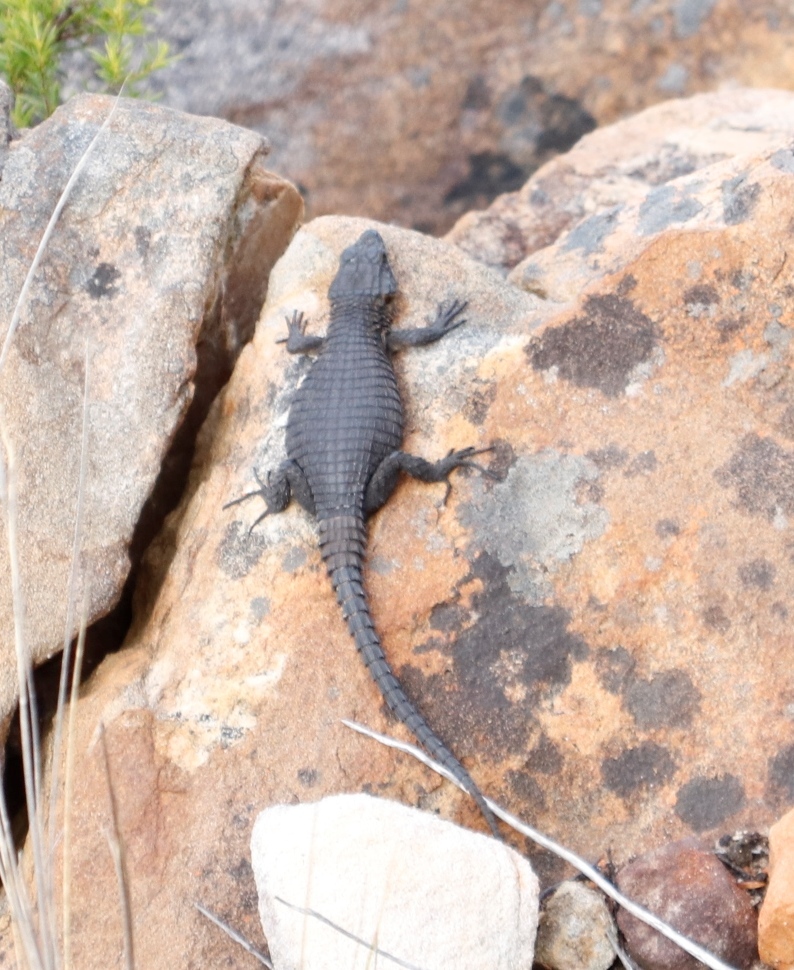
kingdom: Animalia
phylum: Chordata
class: Squamata
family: Cordylidae
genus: Cordylus
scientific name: Cordylus niger
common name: Black girdled lizard
